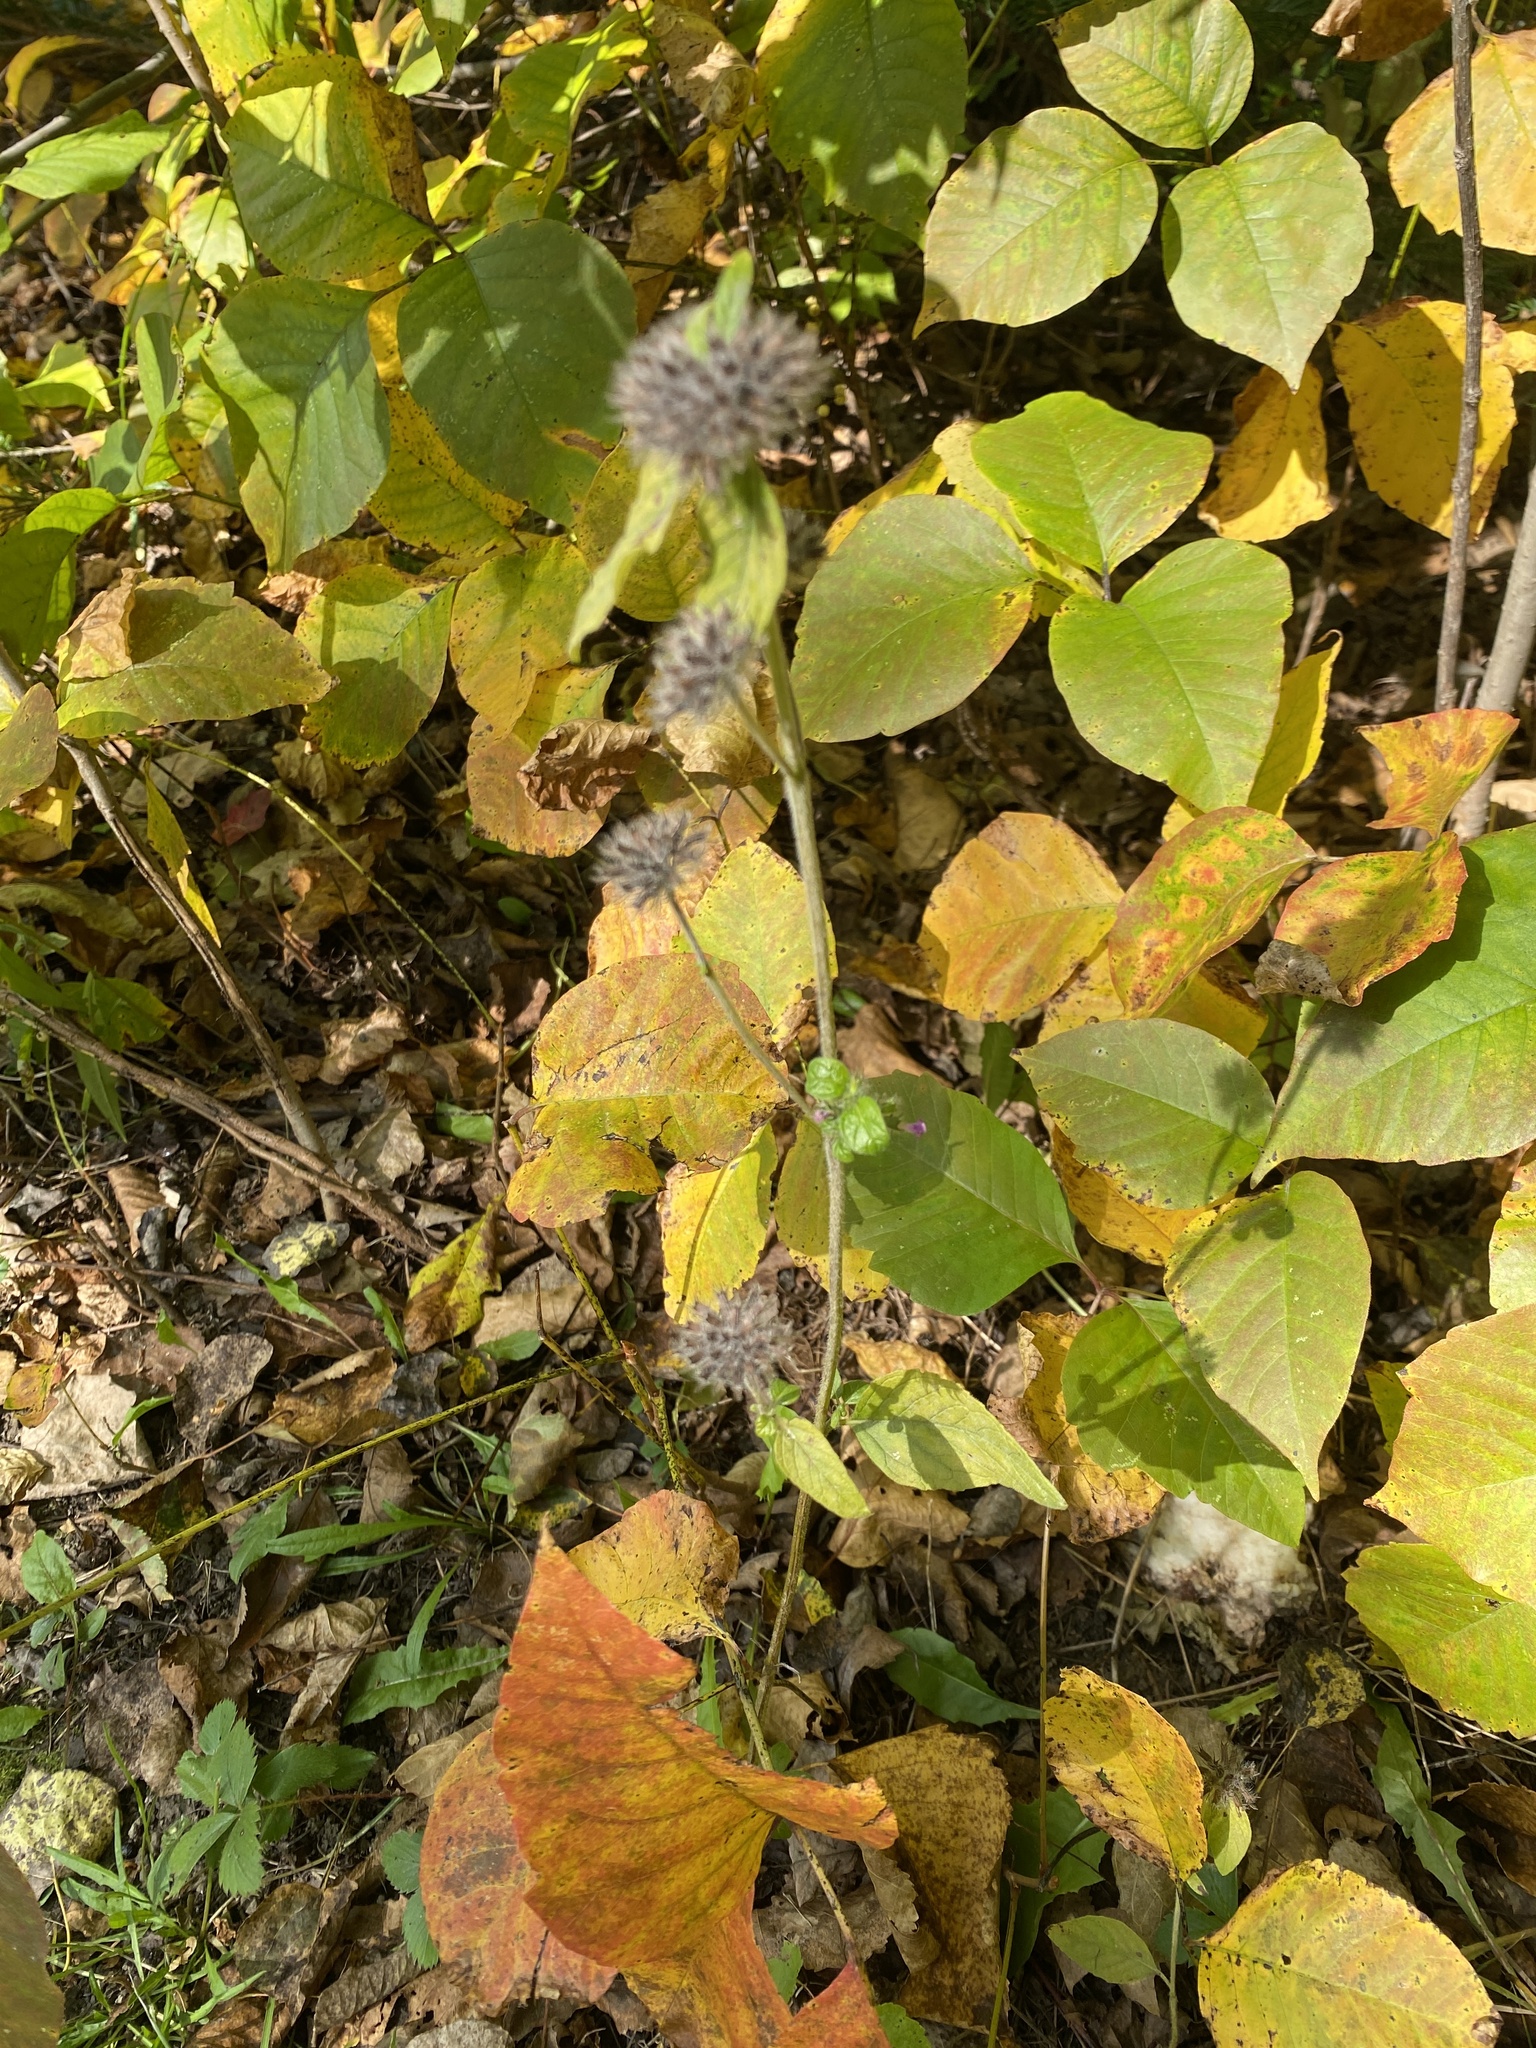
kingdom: Plantae
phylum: Tracheophyta
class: Magnoliopsida
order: Lamiales
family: Lamiaceae
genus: Clinopodium
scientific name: Clinopodium vulgare
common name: Wild basil
